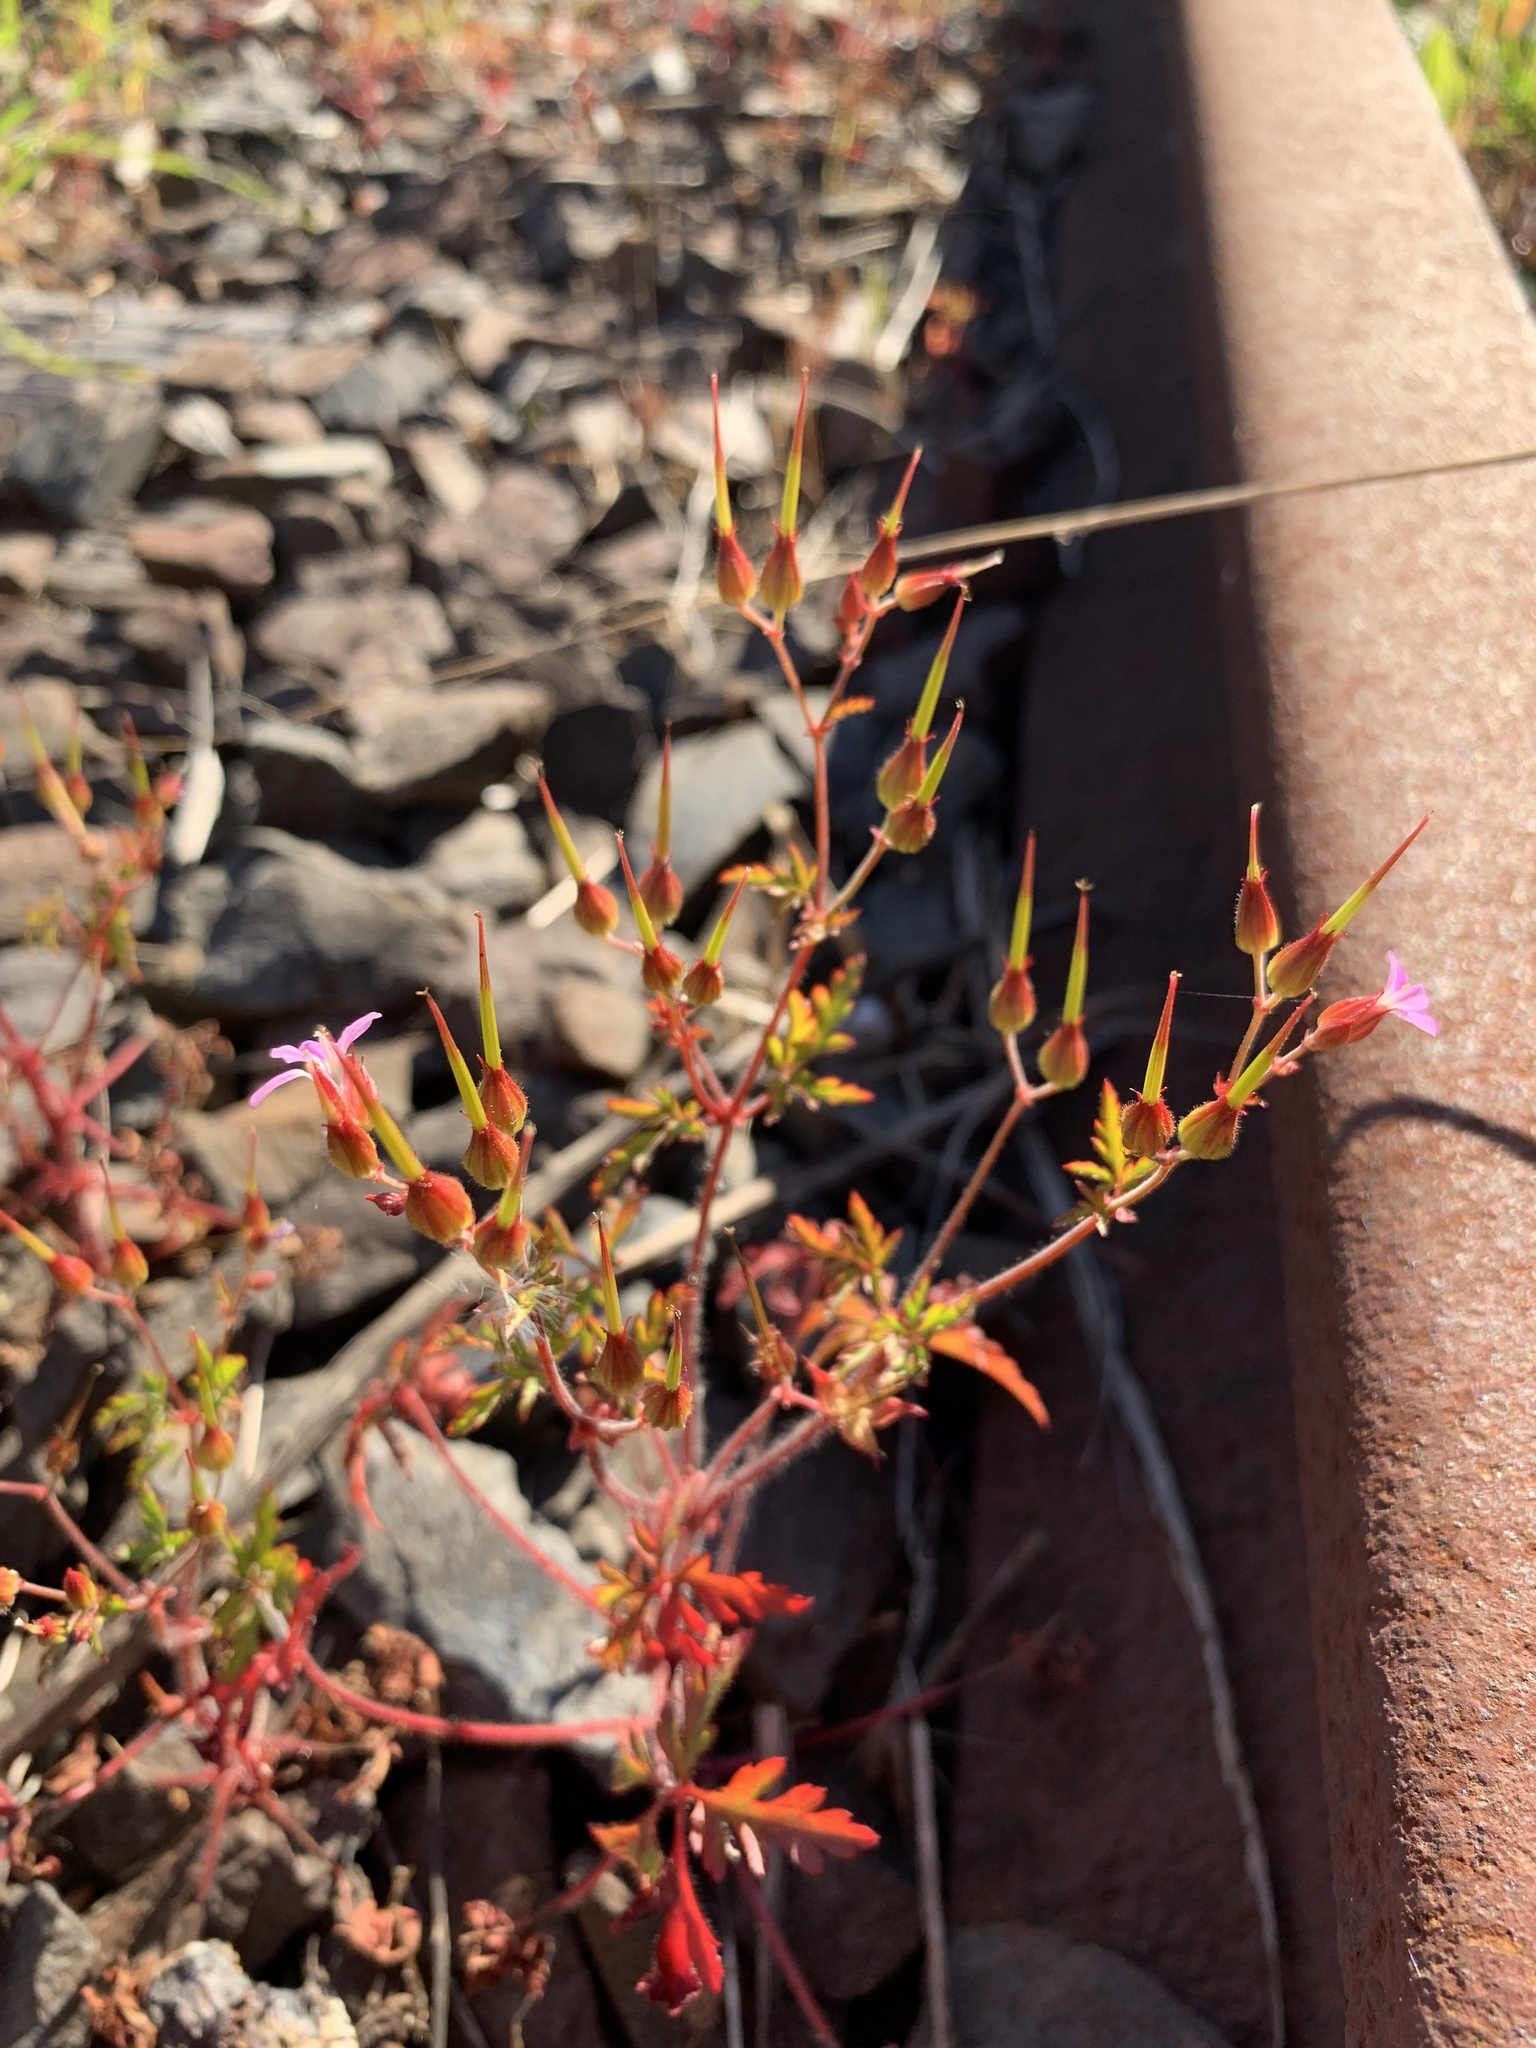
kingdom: Plantae
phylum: Tracheophyta
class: Magnoliopsida
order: Geraniales
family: Geraniaceae
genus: Geranium
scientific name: Geranium purpureum
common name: Little-robin
